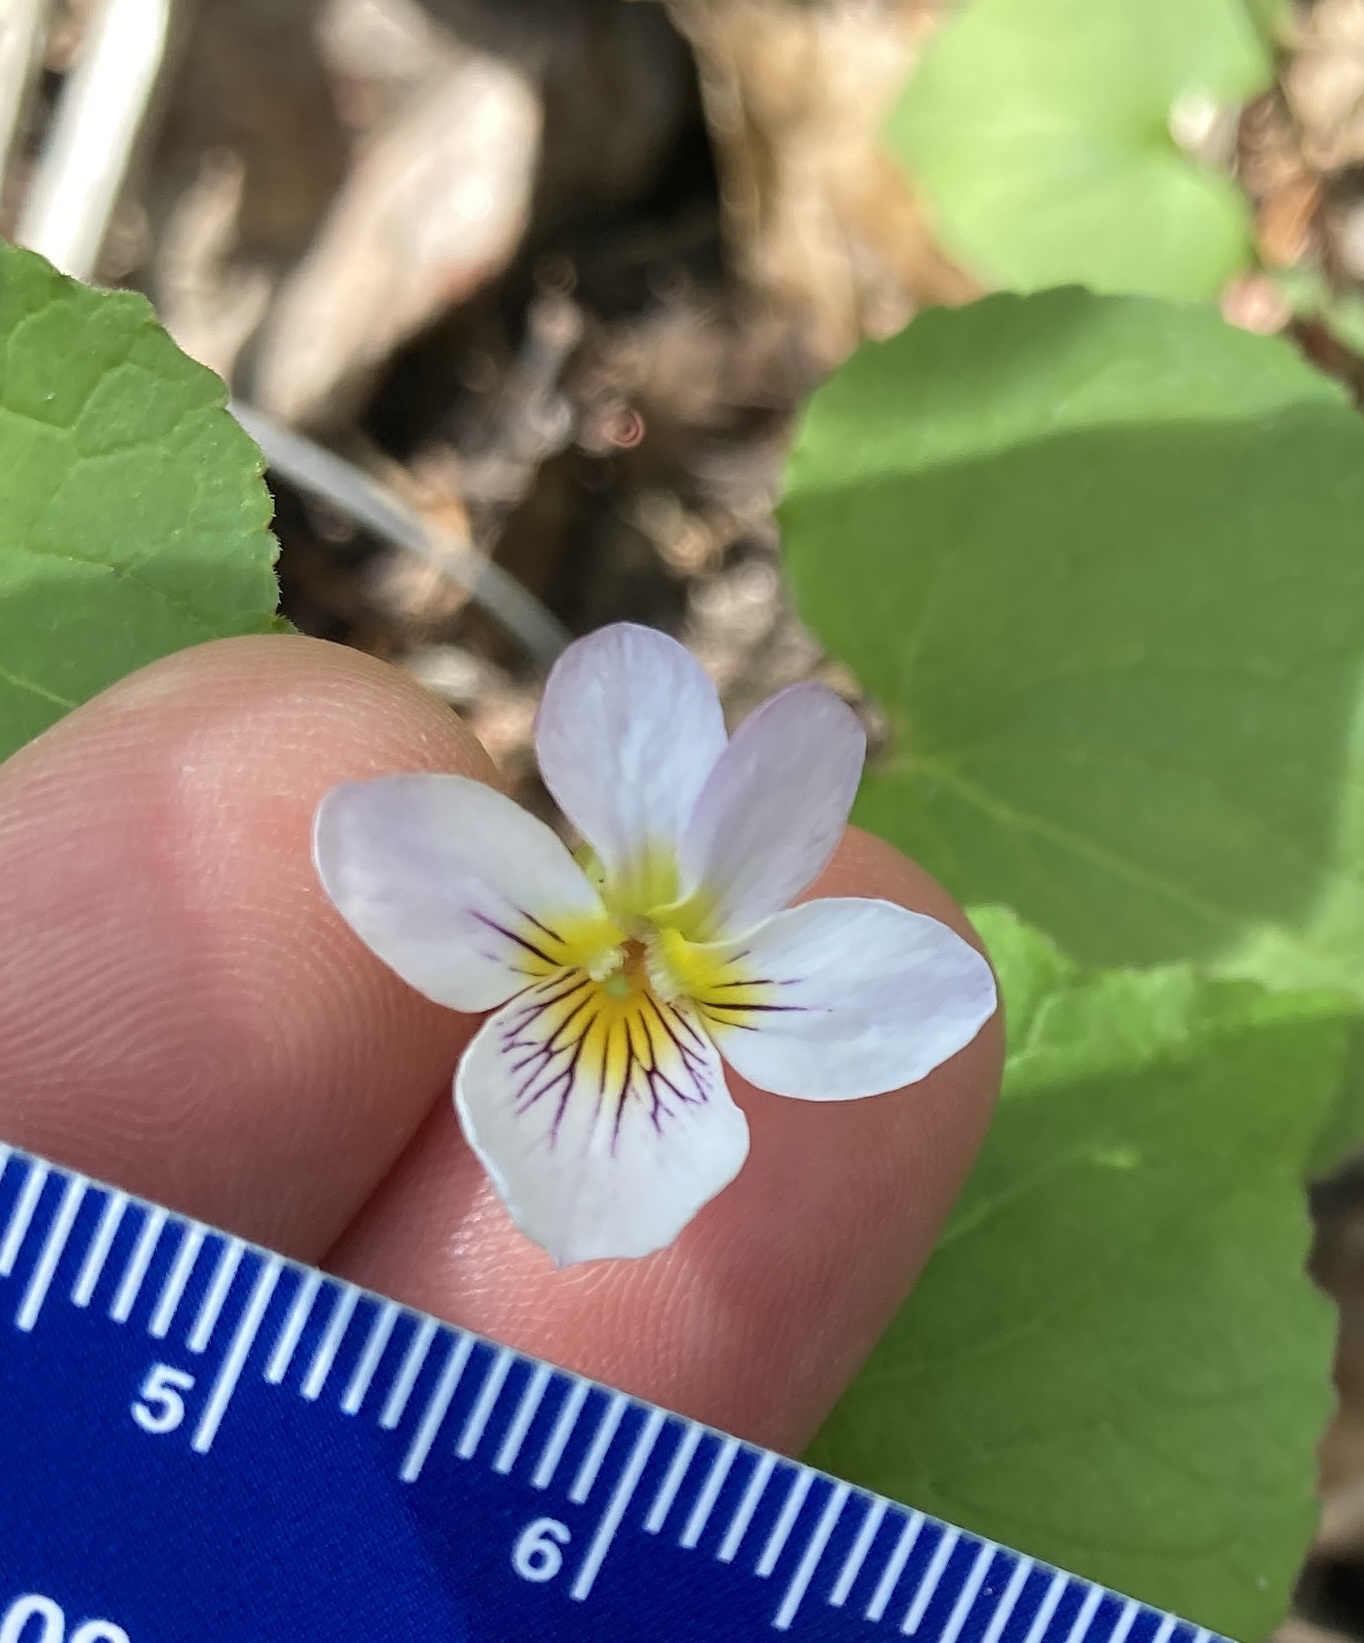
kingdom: Plantae
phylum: Tracheophyta
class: Magnoliopsida
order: Malpighiales
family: Violaceae
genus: Viola
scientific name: Viola canadensis
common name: Canada violet
